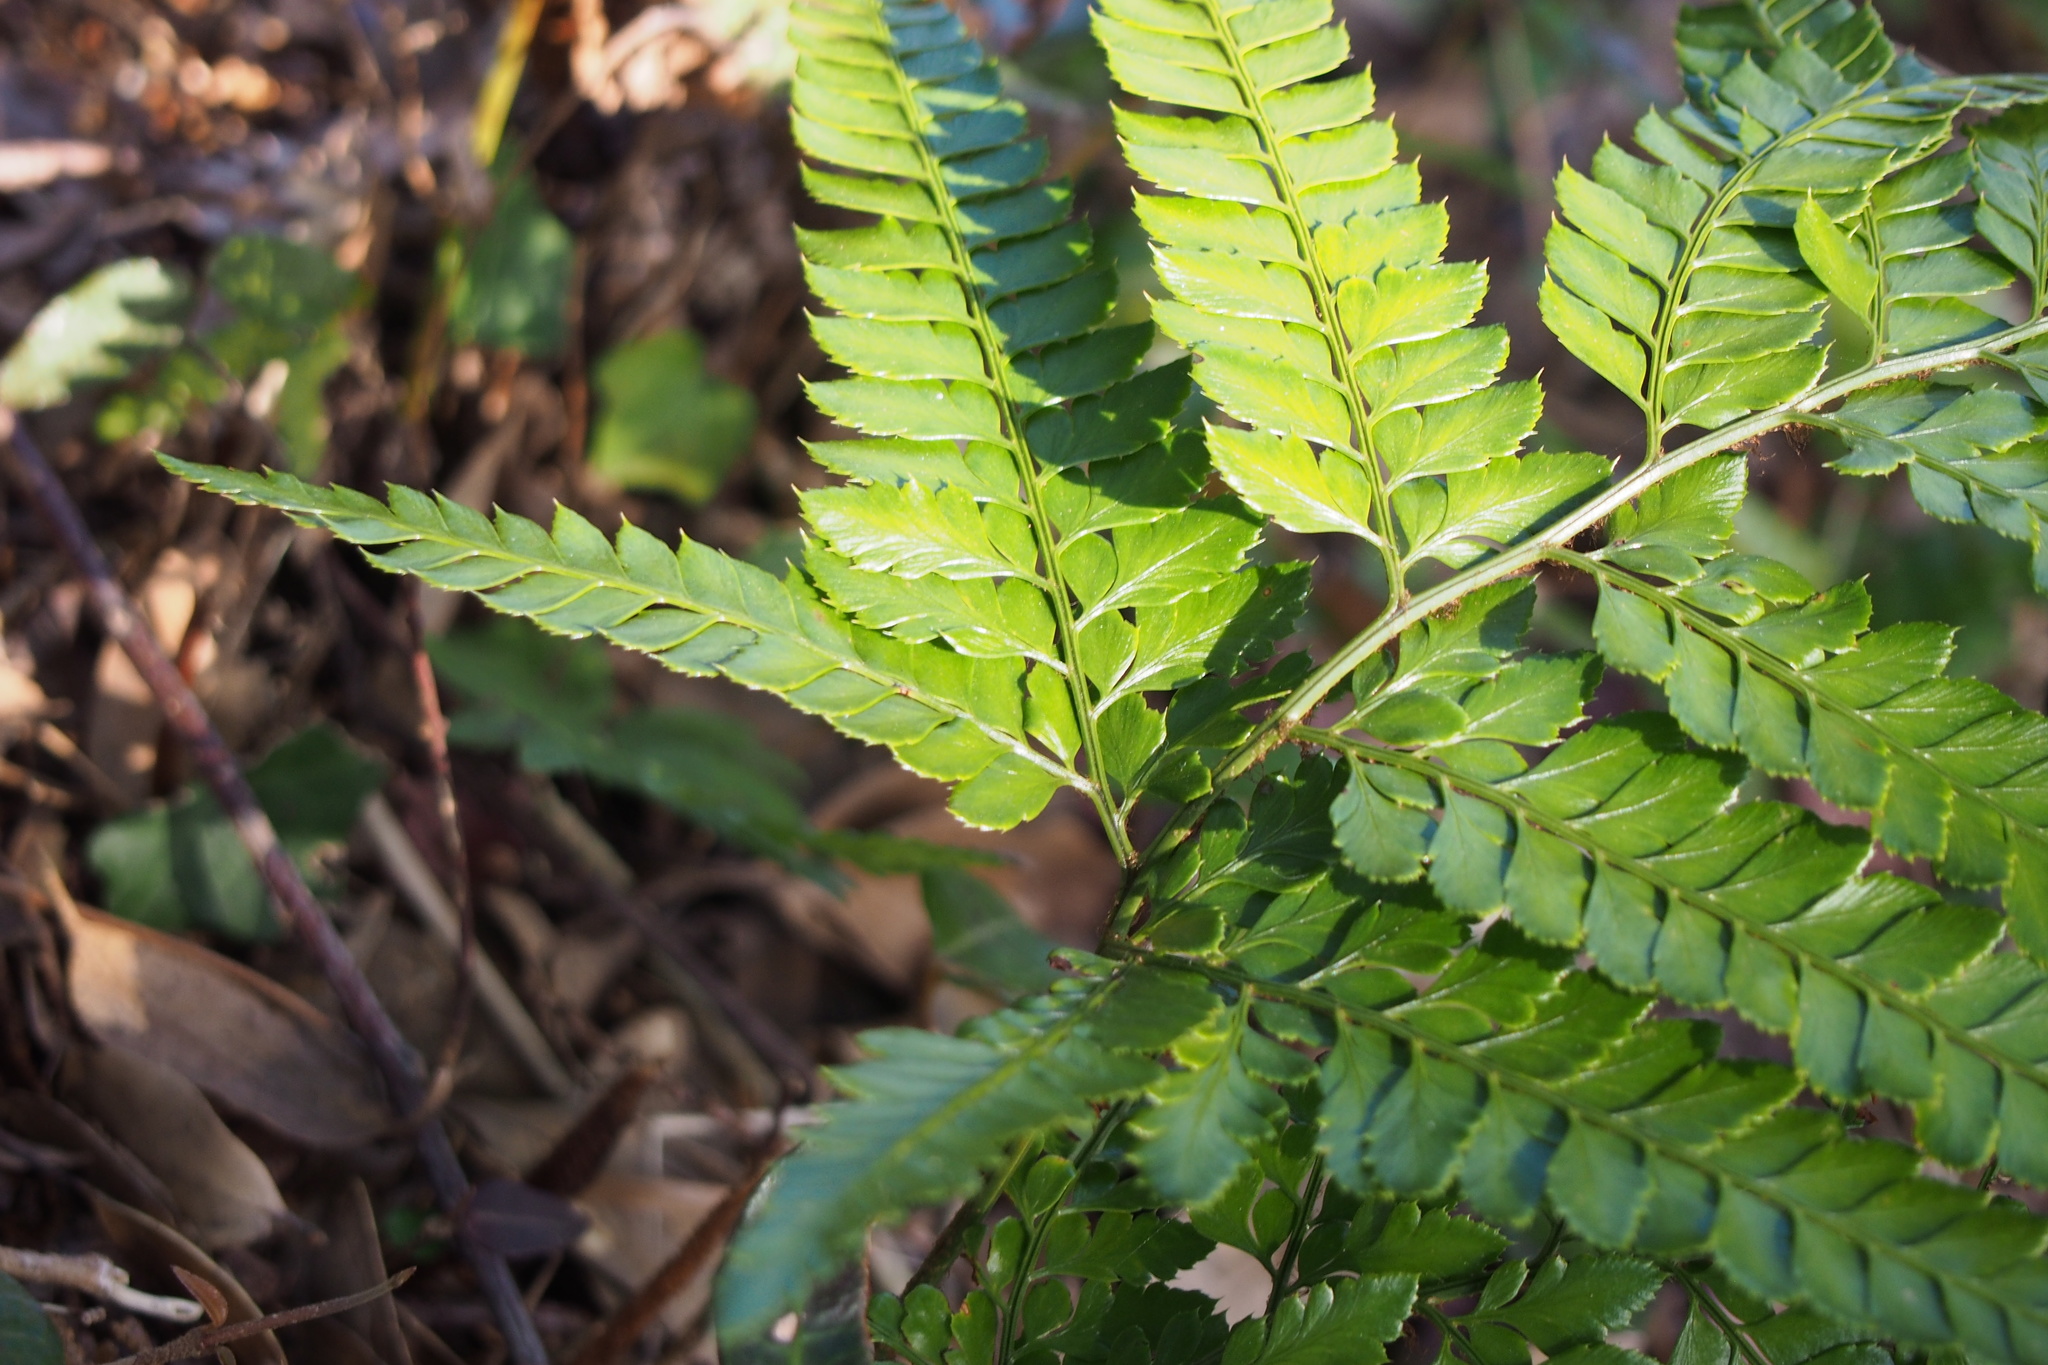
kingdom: Plantae
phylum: Tracheophyta
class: Polypodiopsida
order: Polypodiales
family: Dryopteridaceae
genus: Arachniodes
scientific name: Arachniodes aristata
